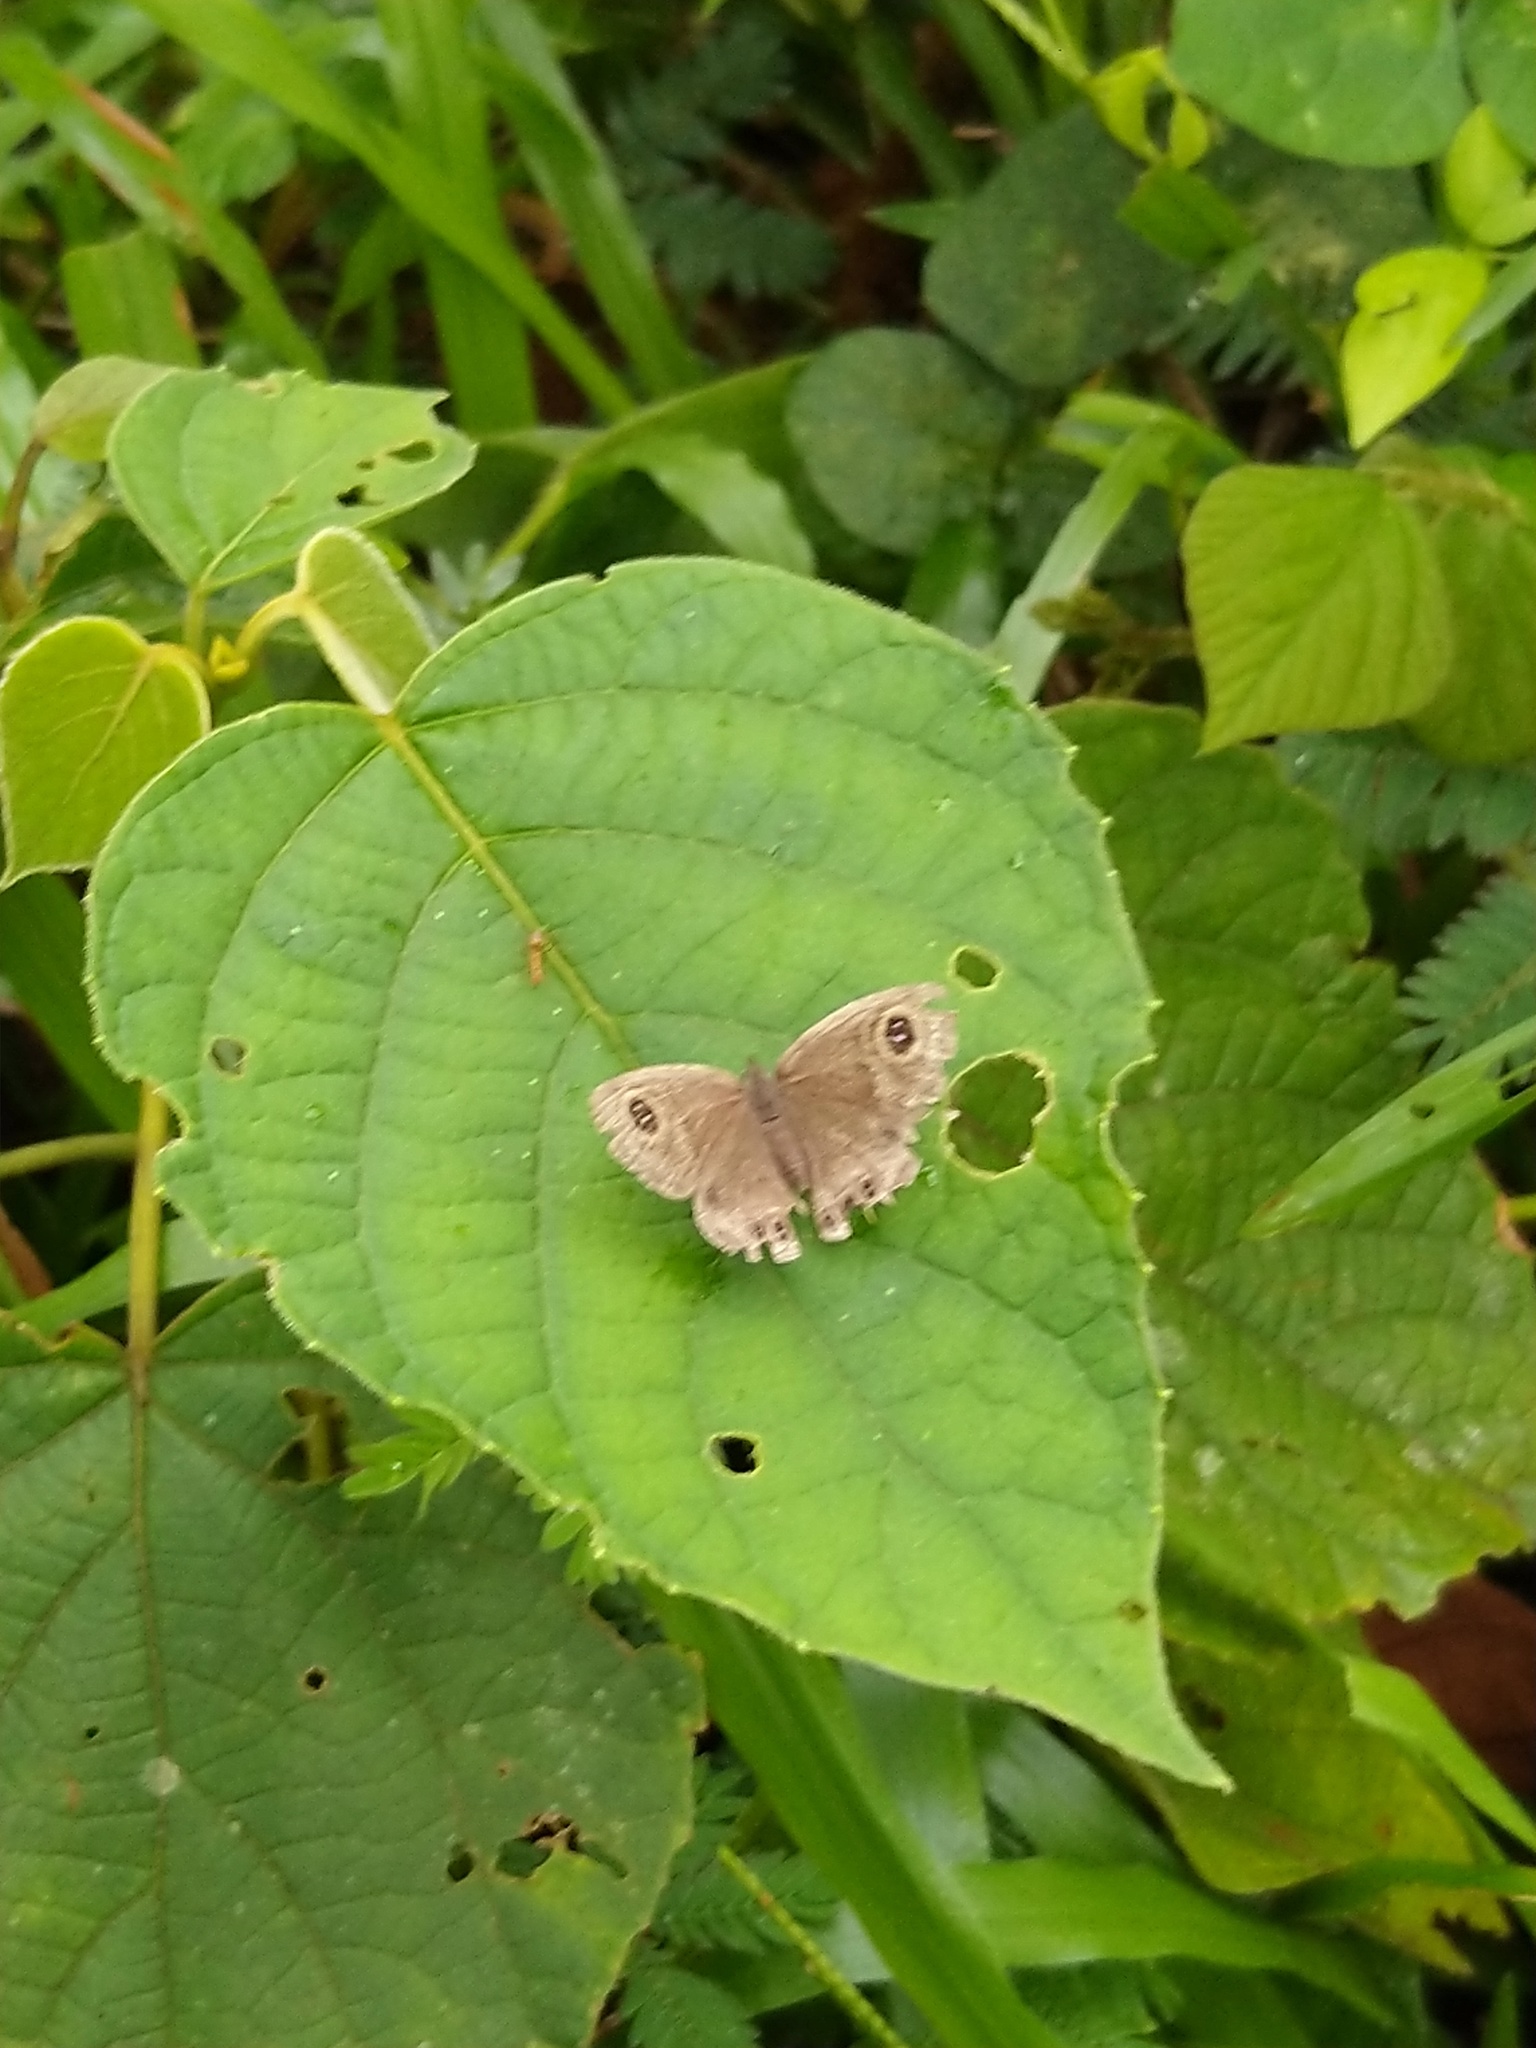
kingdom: Animalia
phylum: Arthropoda
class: Insecta
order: Lepidoptera
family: Nymphalidae
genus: Ypthima
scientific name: Ypthima baldus
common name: Common five-ring
